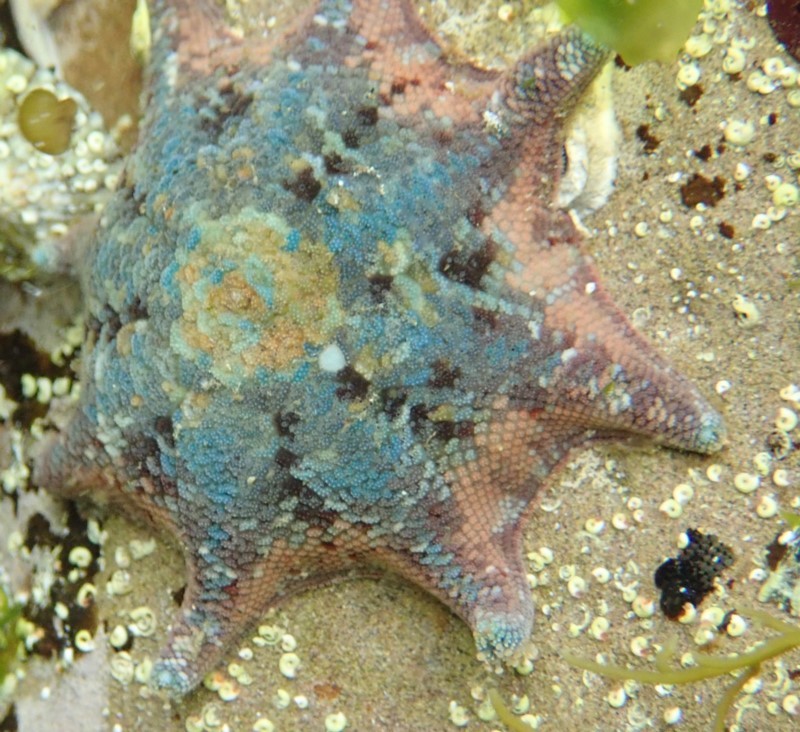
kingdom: Animalia
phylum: Echinodermata
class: Asteroidea
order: Valvatida
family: Asterinidae
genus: Meridiastra
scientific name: Meridiastra calcar
